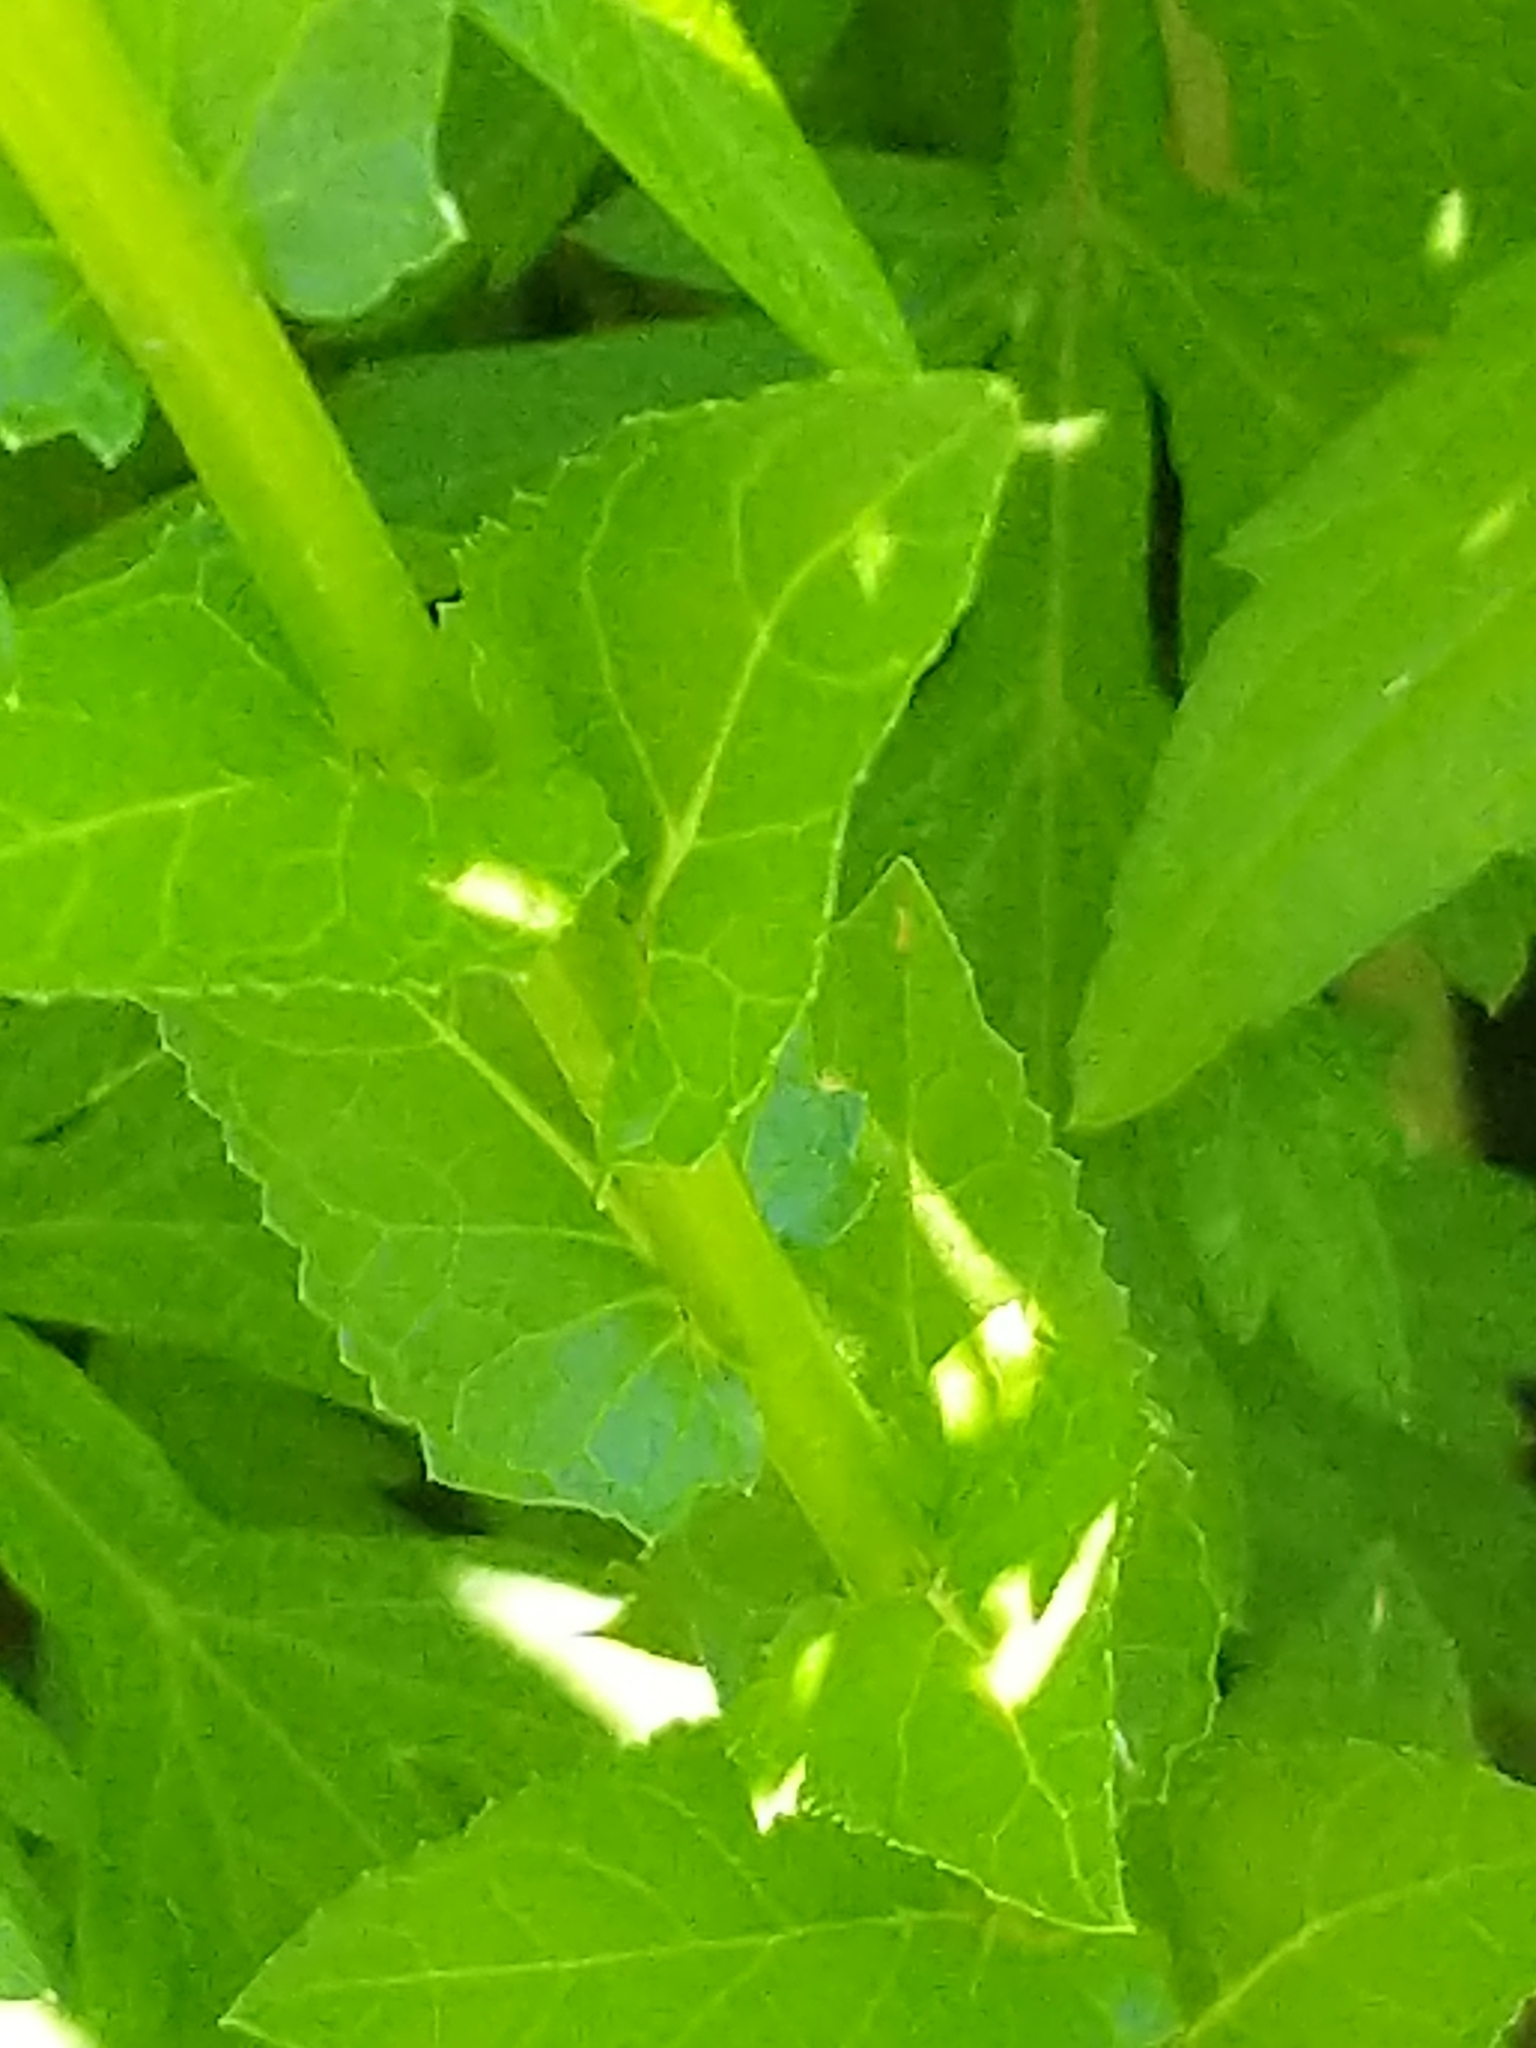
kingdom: Plantae
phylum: Tracheophyta
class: Magnoliopsida
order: Lamiales
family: Scrophulariaceae
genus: Verbascum
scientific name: Verbascum blattaria
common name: Moth mullein
